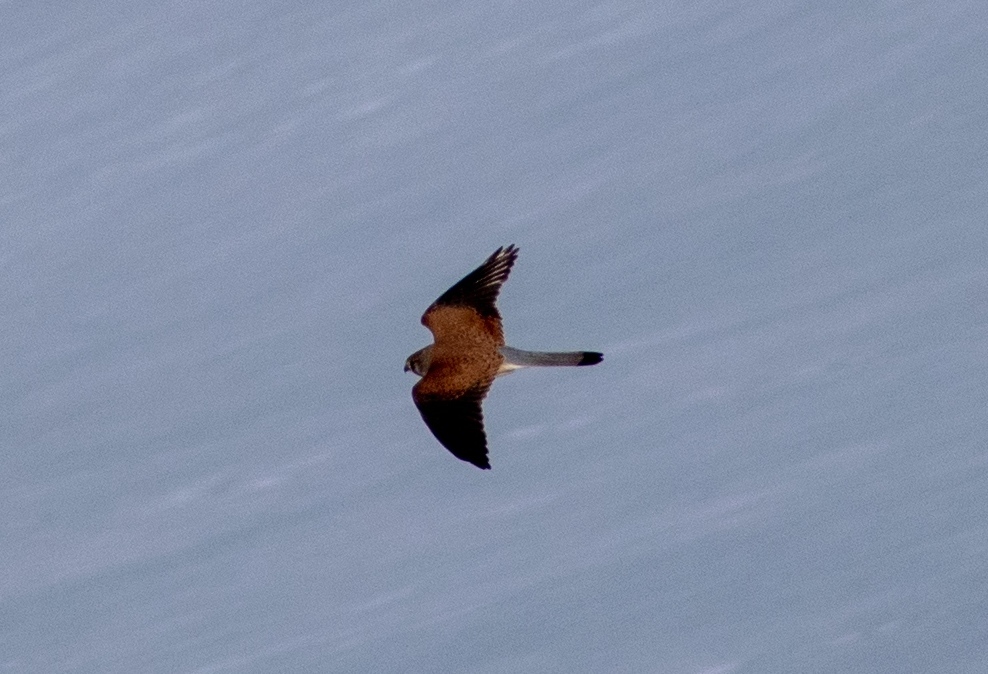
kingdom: Animalia
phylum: Chordata
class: Aves
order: Falconiformes
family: Falconidae
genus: Falco
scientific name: Falco tinnunculus
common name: Common kestrel
